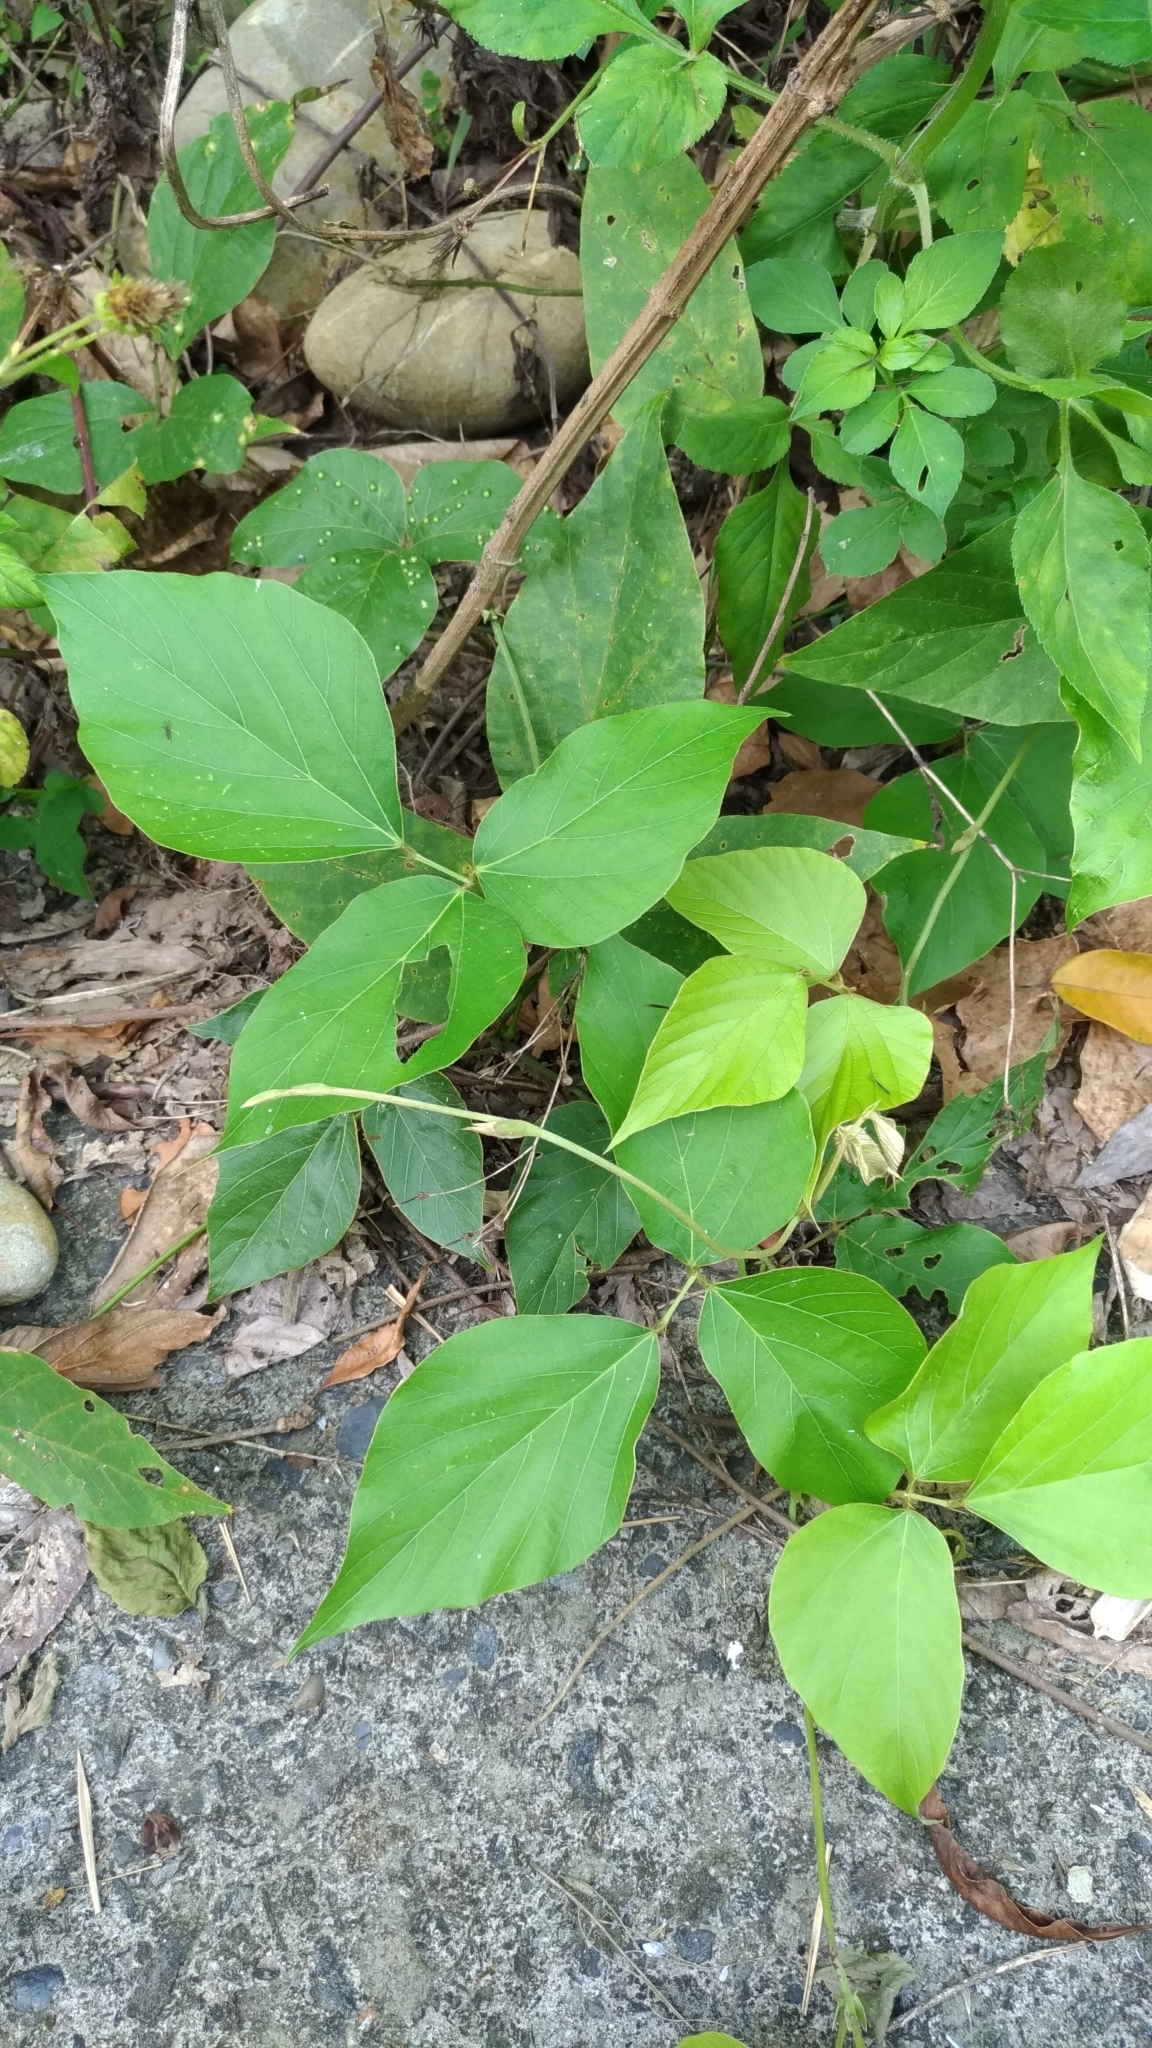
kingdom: Plantae
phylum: Tracheophyta
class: Magnoliopsida
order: Fabales
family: Fabaceae
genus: Pueraria
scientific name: Pueraria montana
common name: Kudzu
